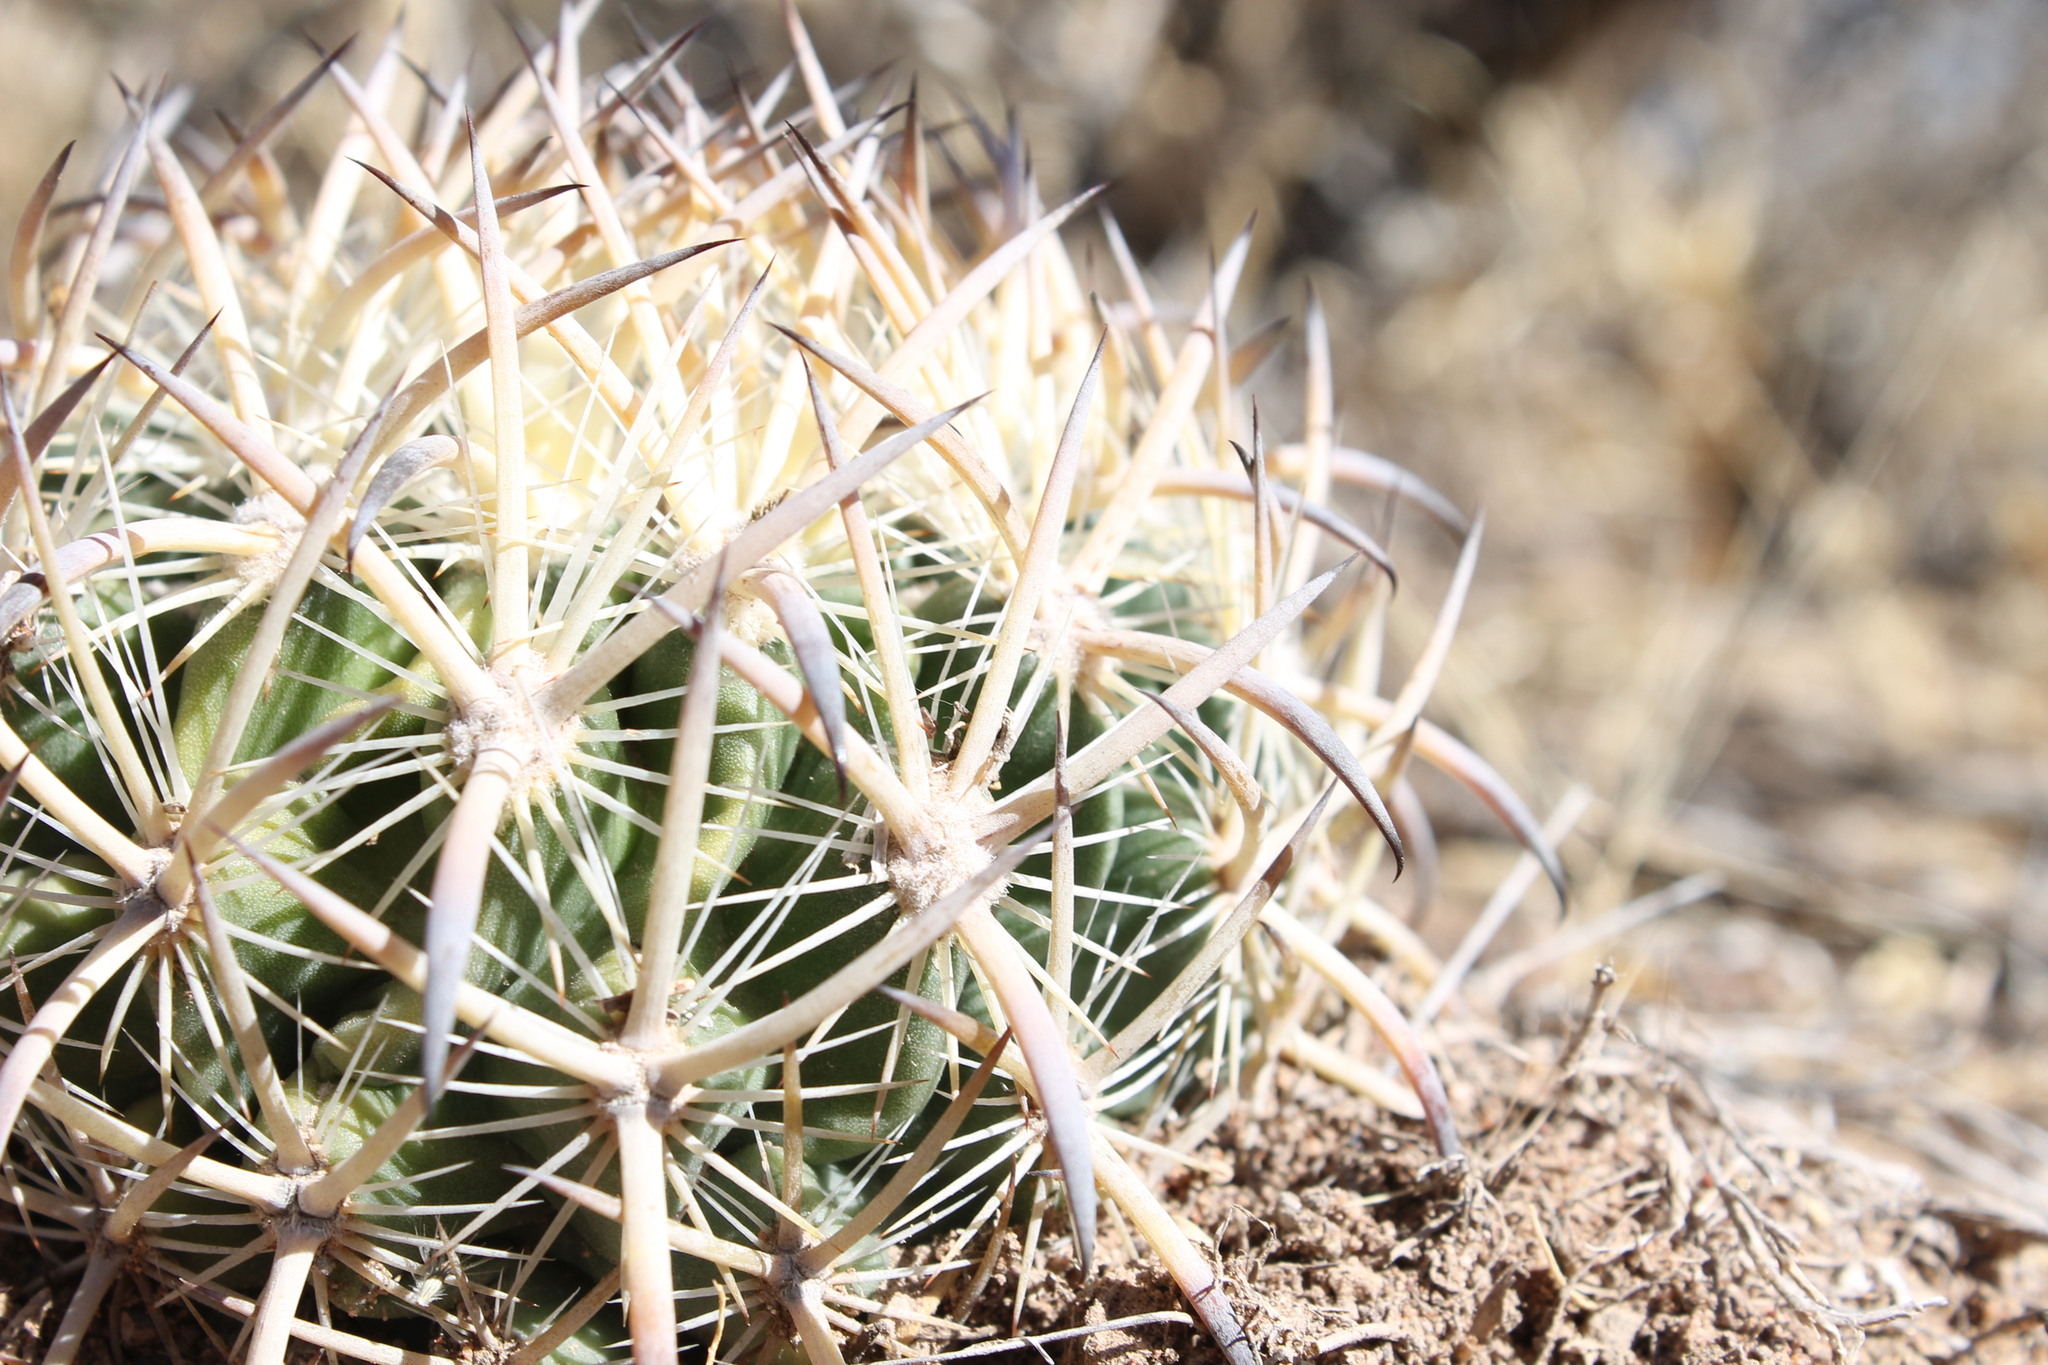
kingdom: Plantae
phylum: Tracheophyta
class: Magnoliopsida
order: Caryophyllales
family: Cactaceae
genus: Sclerocactus
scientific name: Sclerocactus unguispinus
